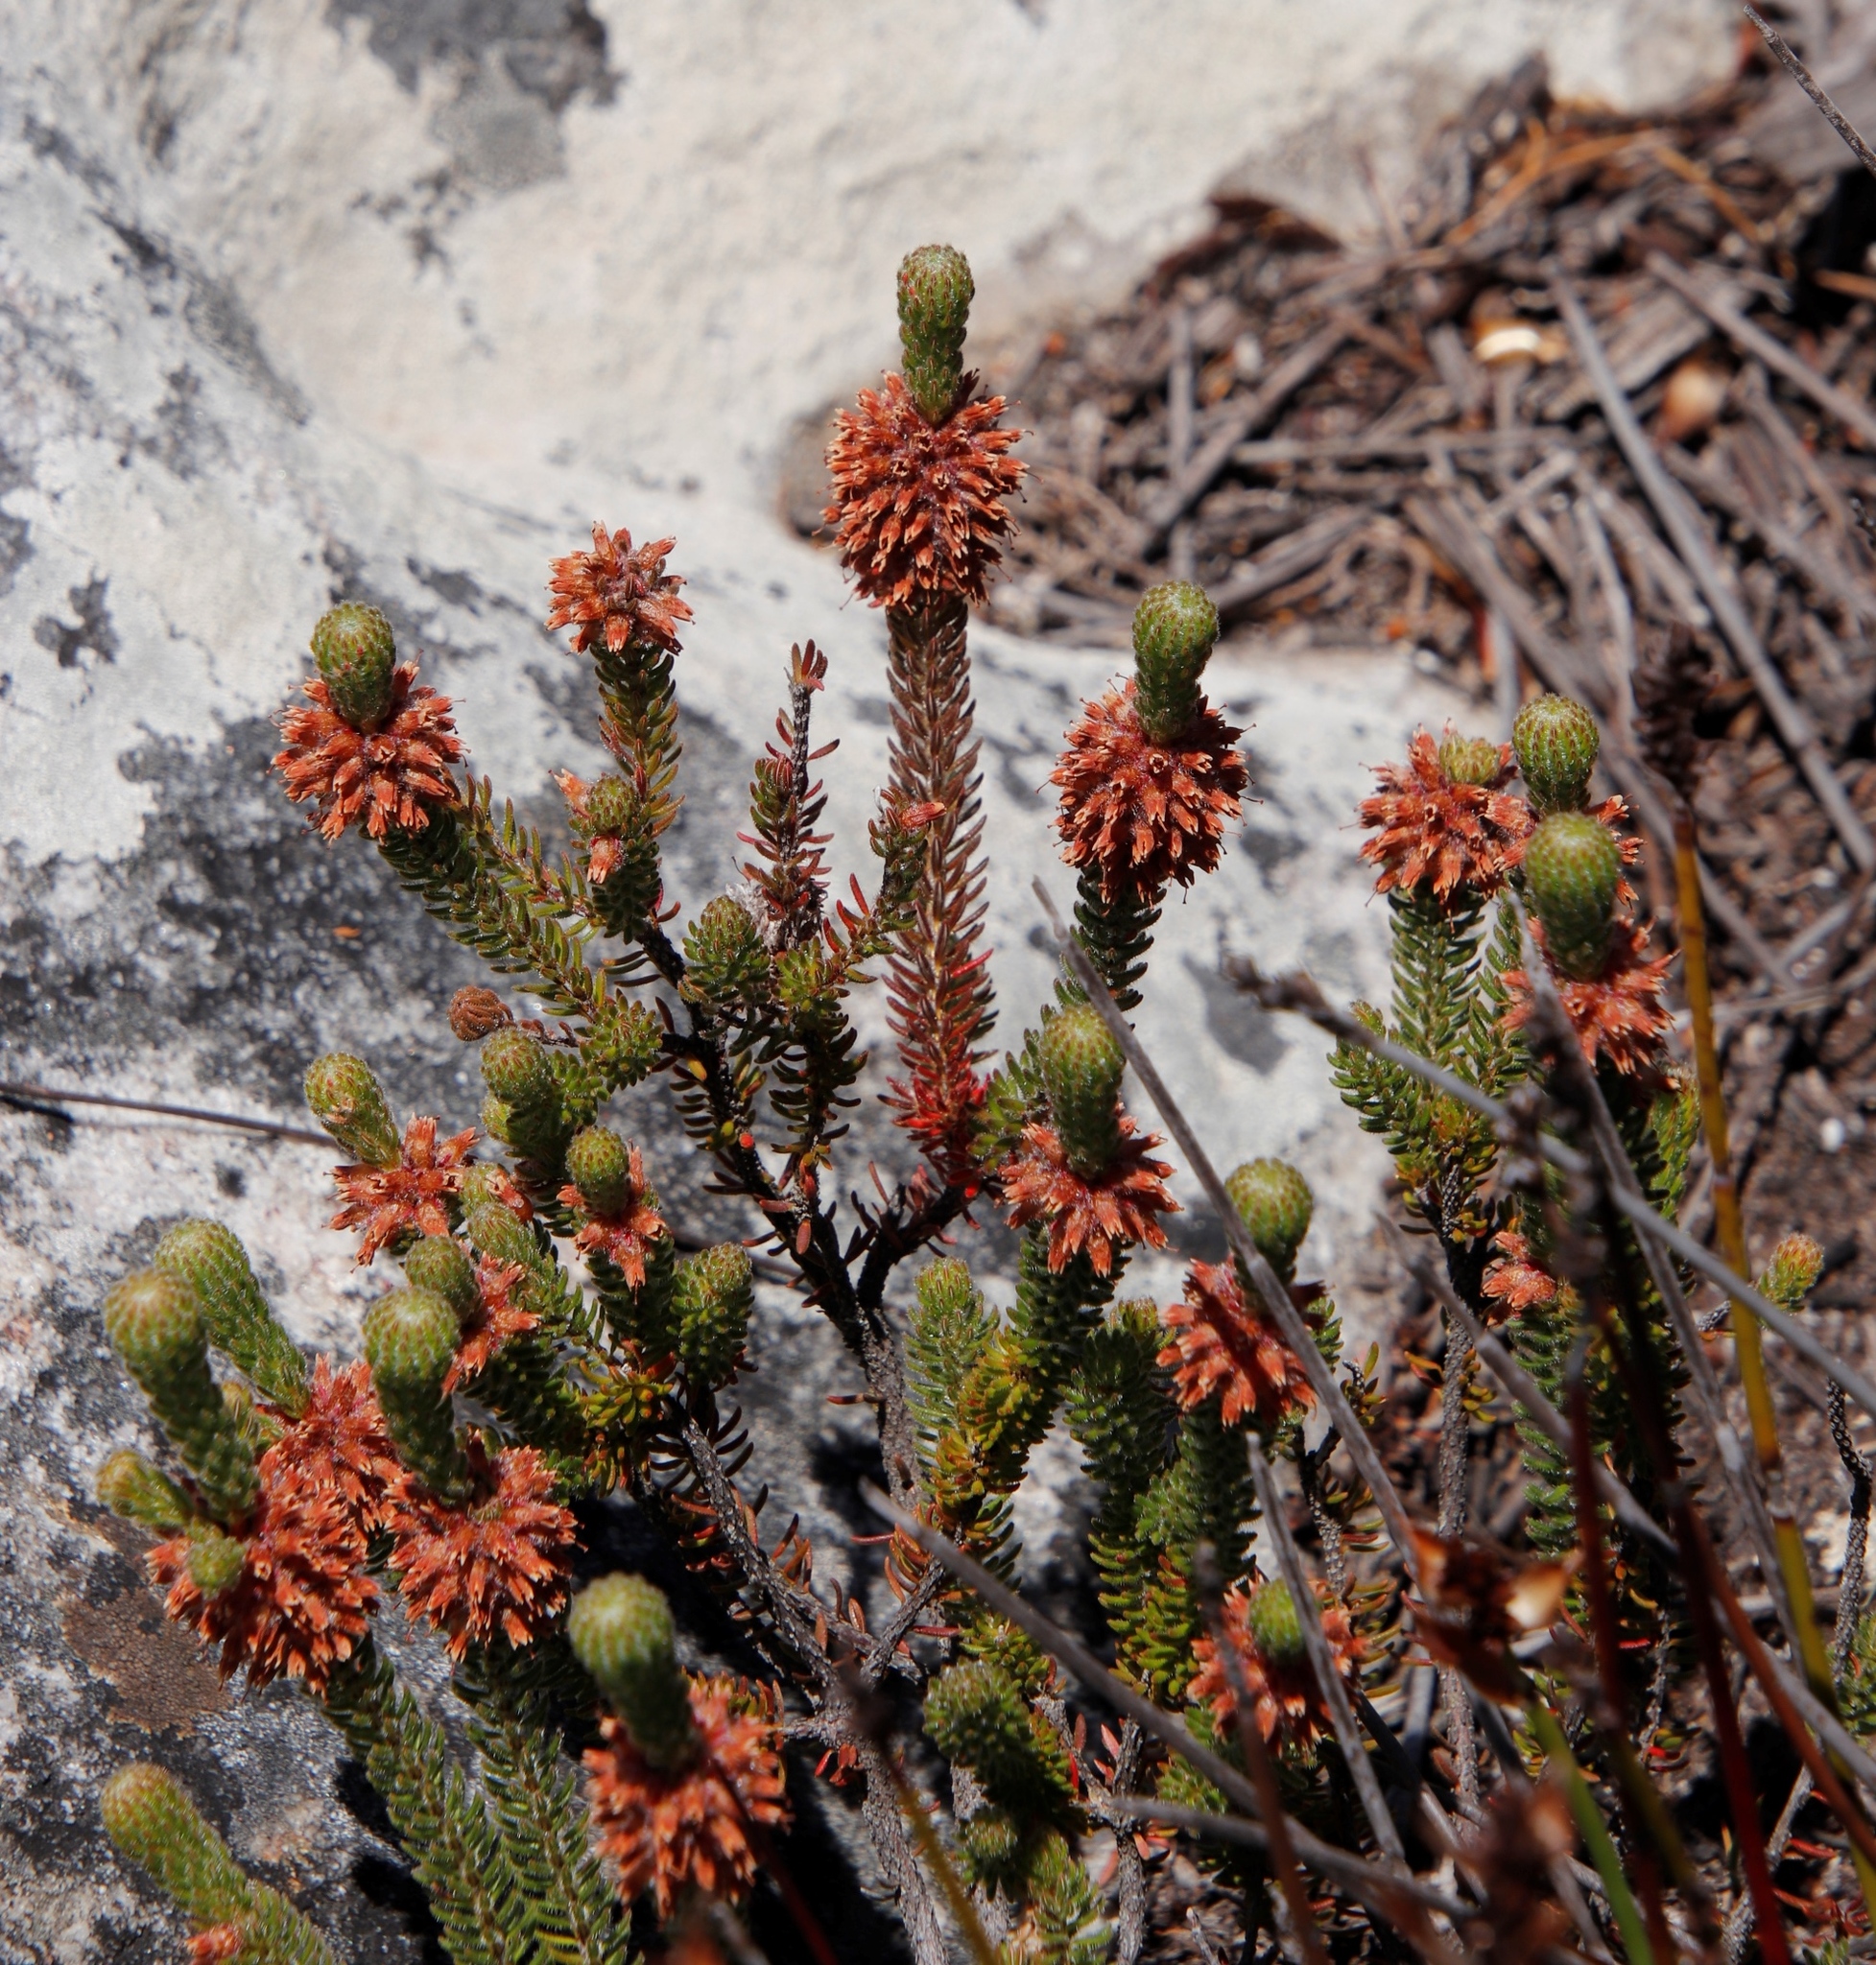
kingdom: Plantae
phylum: Tracheophyta
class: Magnoliopsida
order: Ericales
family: Ericaceae
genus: Erica
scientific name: Erica empetrina
